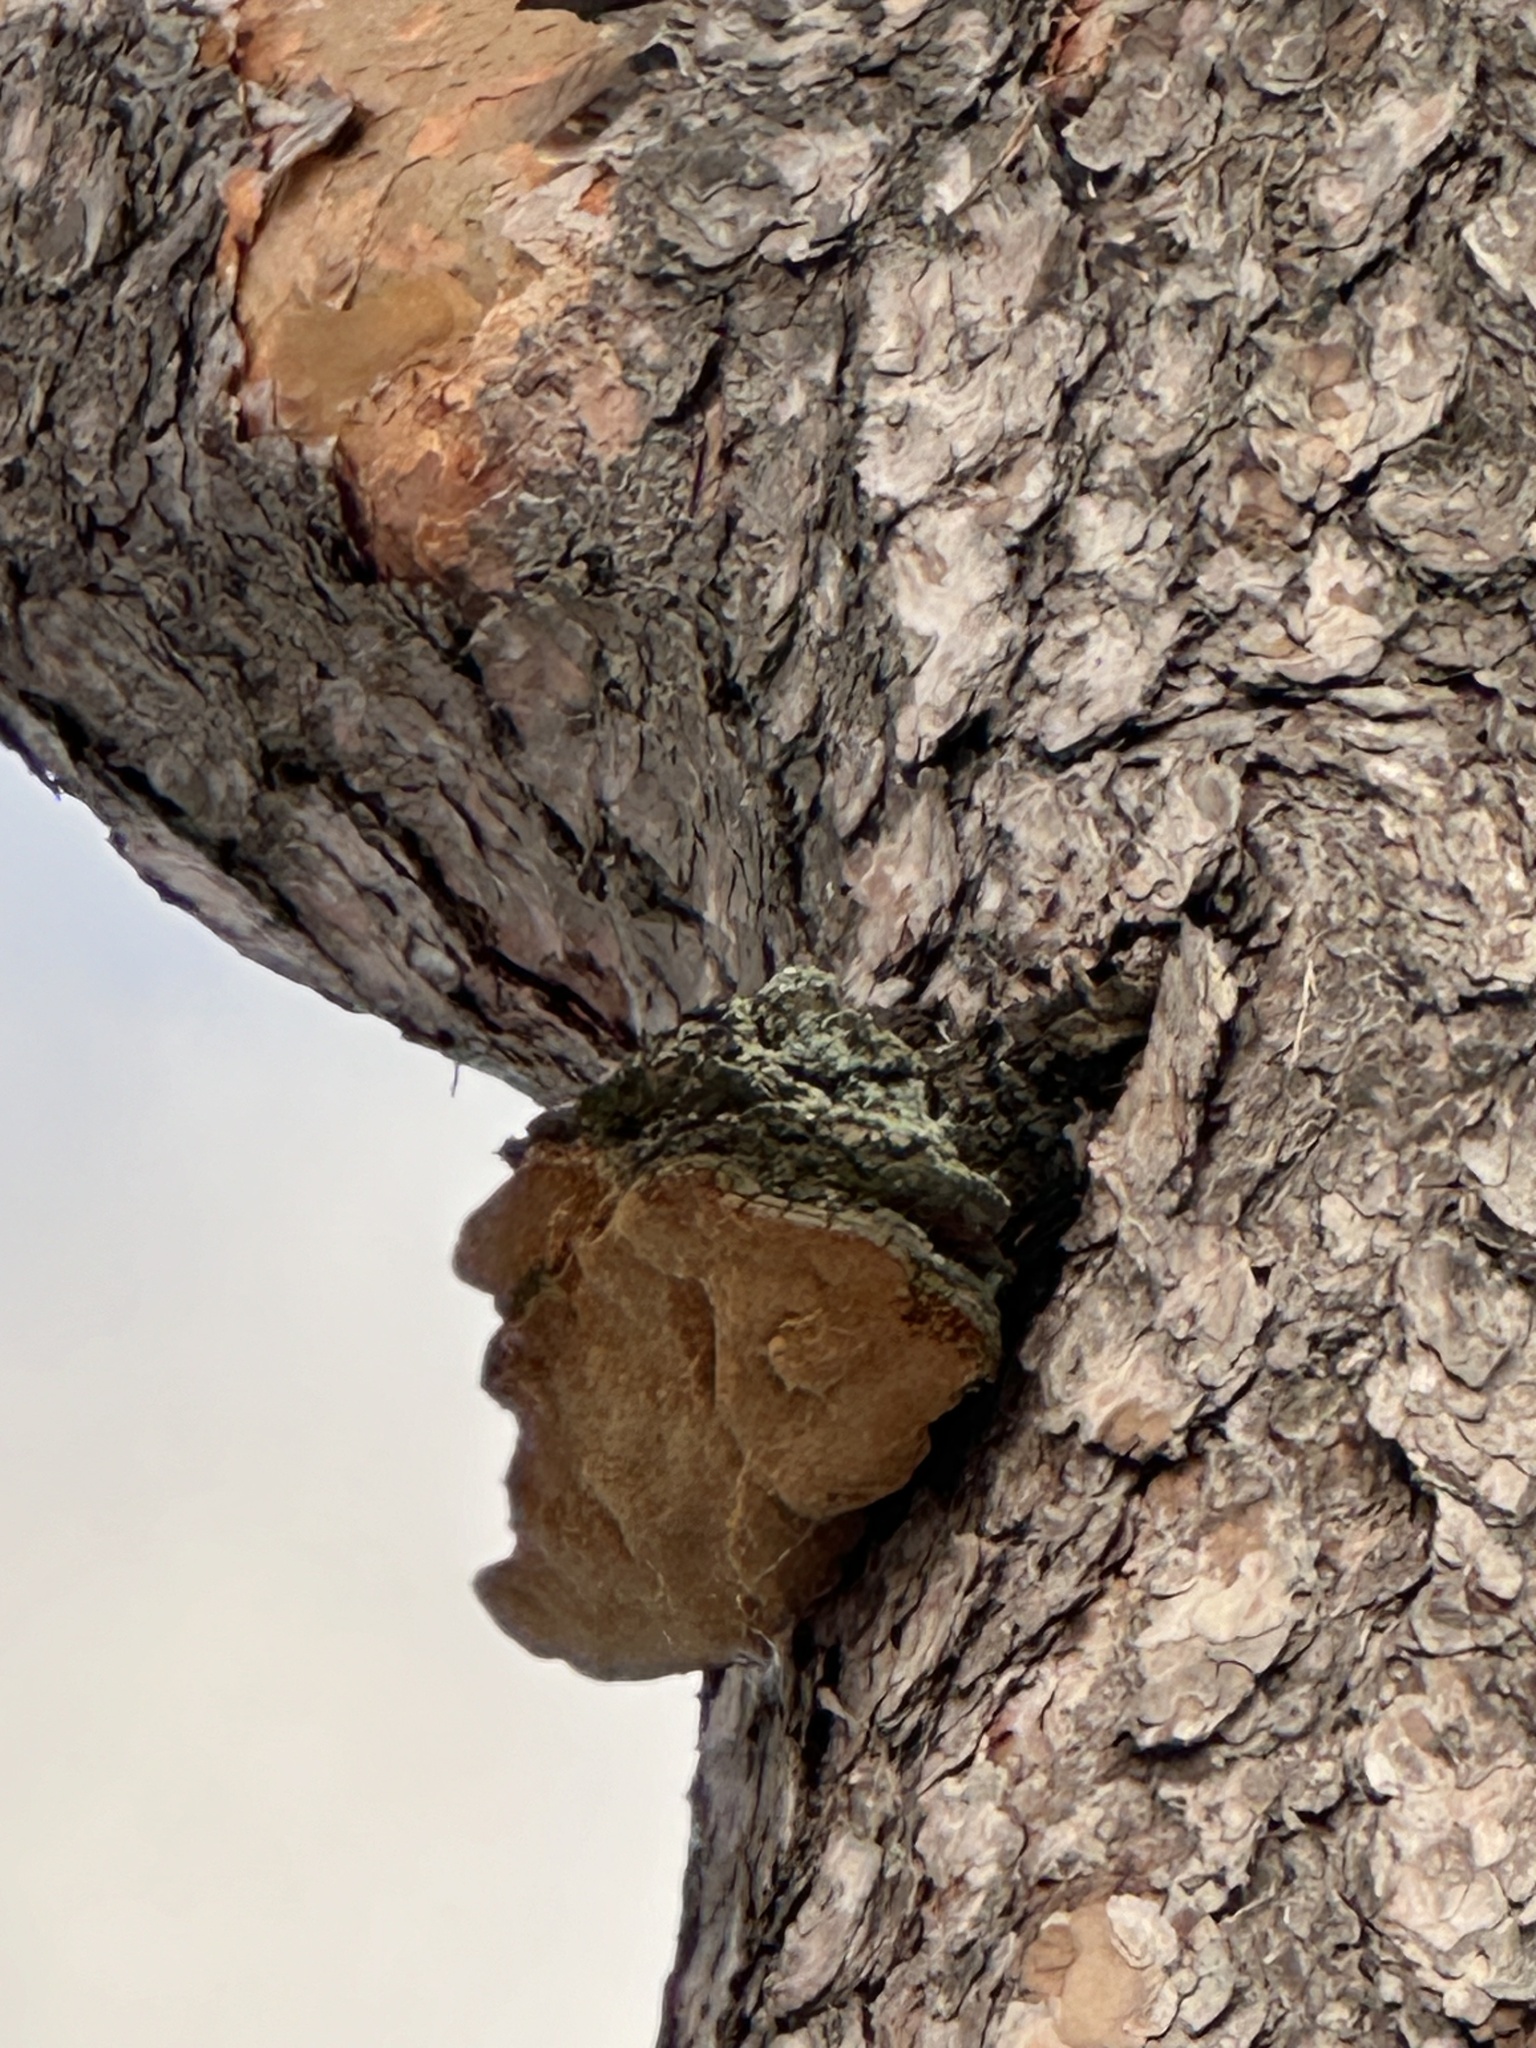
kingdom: Fungi
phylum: Basidiomycota
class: Agaricomycetes
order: Hymenochaetales
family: Hymenochaetaceae
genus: Porodaedalea
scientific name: Porodaedalea pini
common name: Pine bracket
